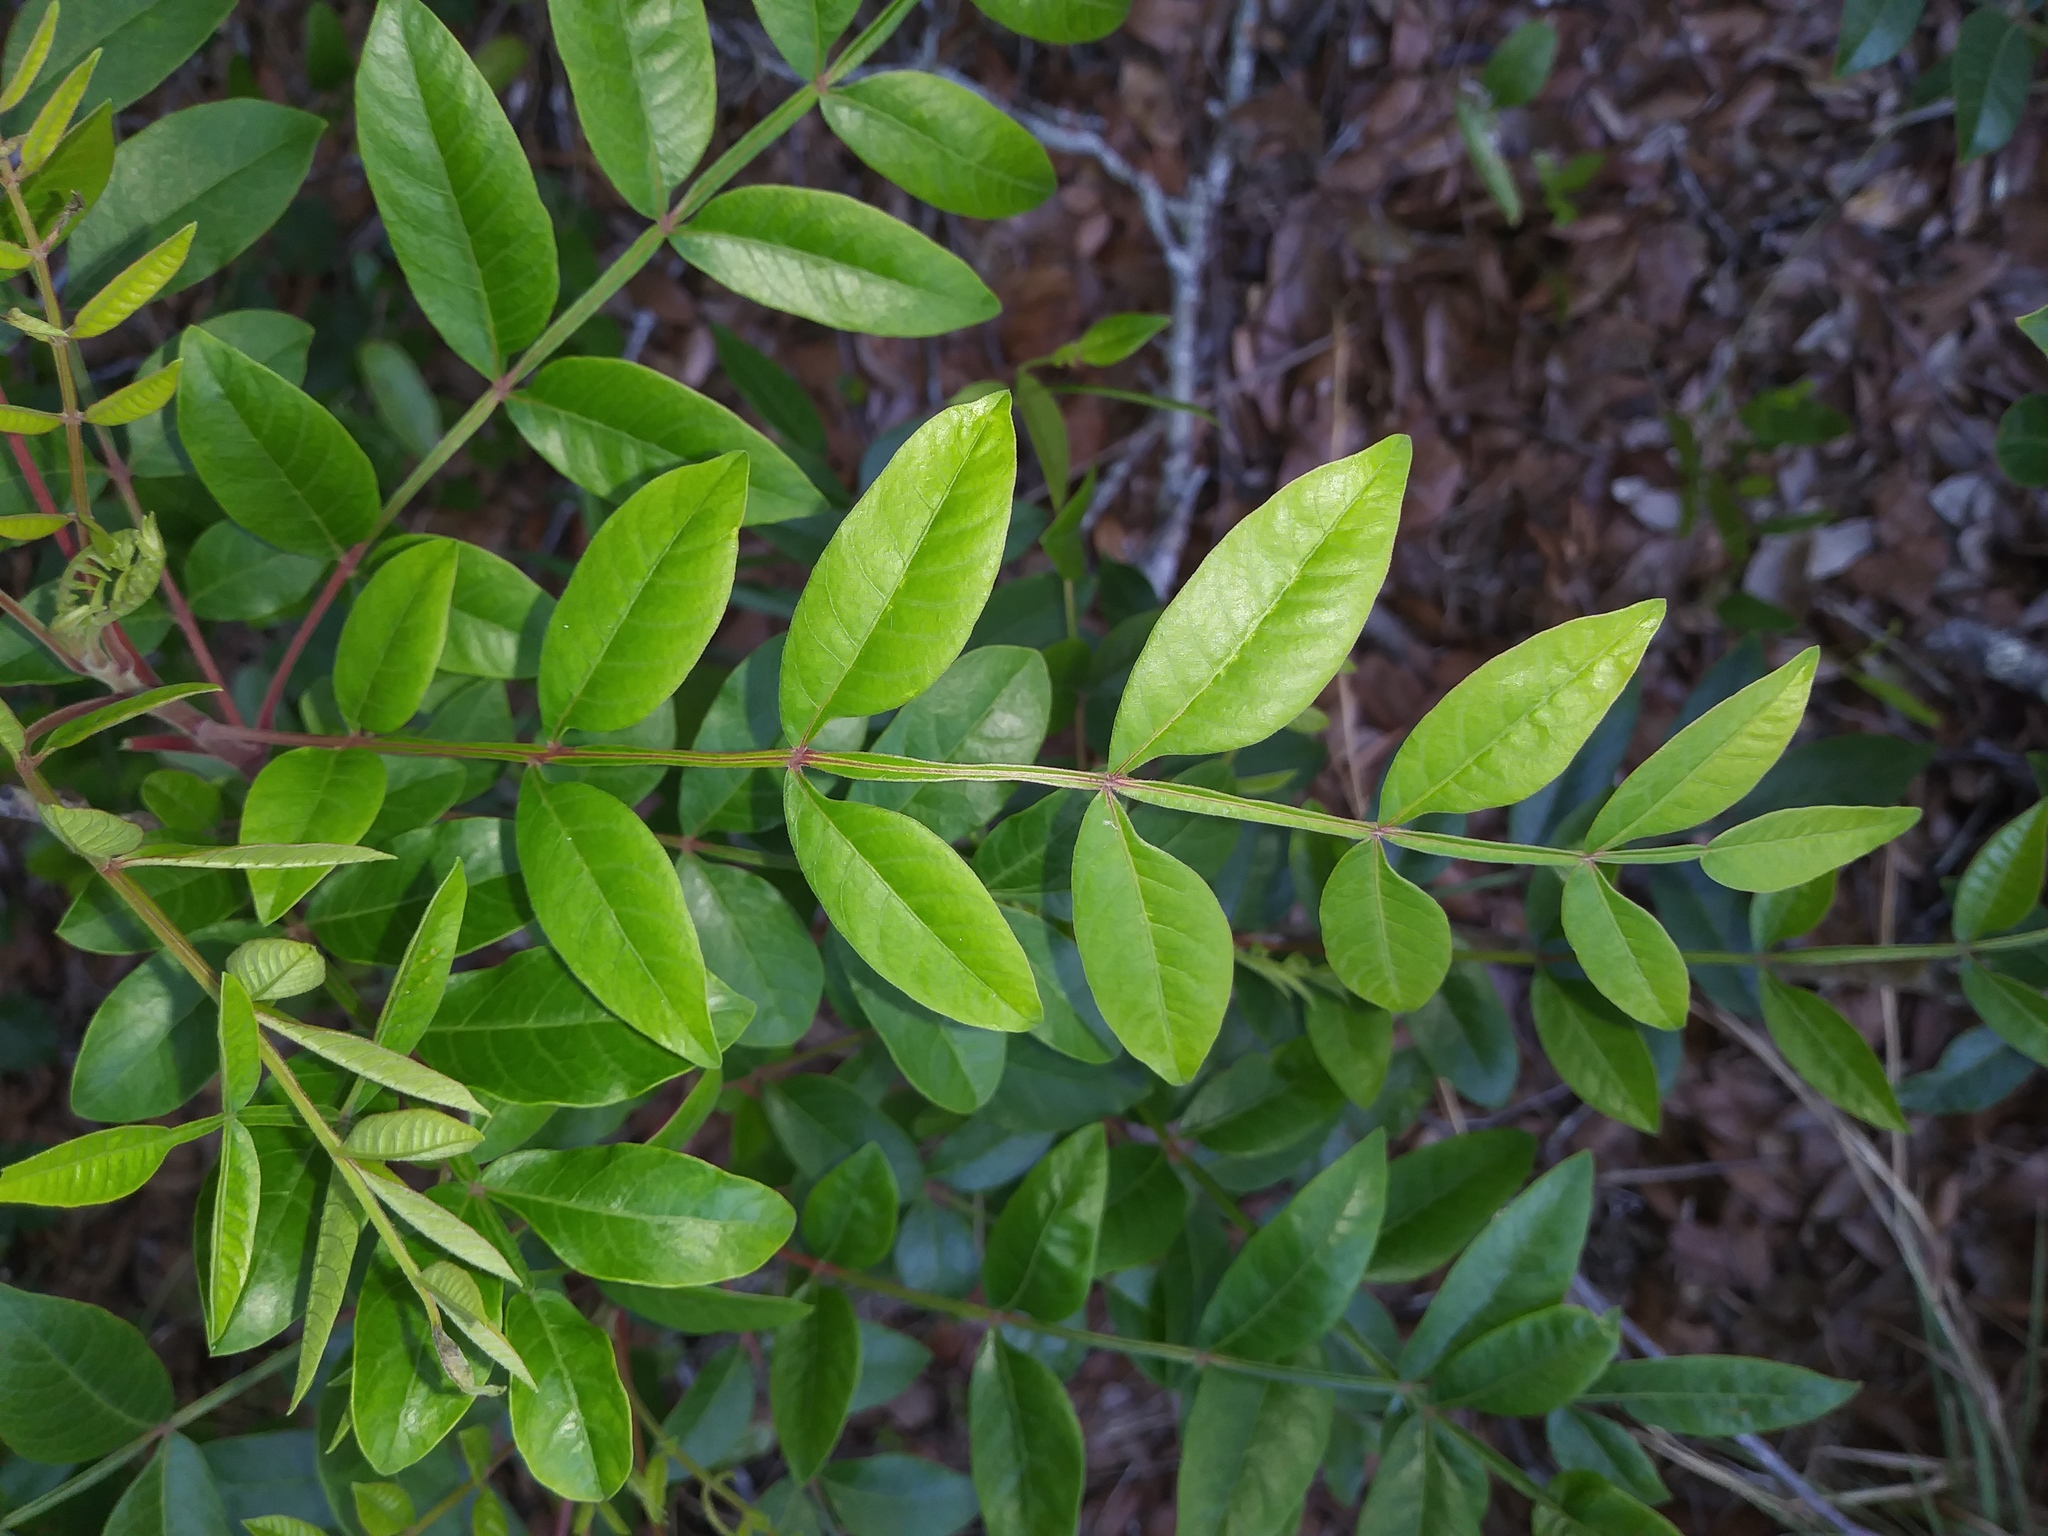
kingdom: Plantae
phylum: Tracheophyta
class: Magnoliopsida
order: Sapindales
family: Anacardiaceae
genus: Rhus
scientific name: Rhus copallina
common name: Shining sumac
